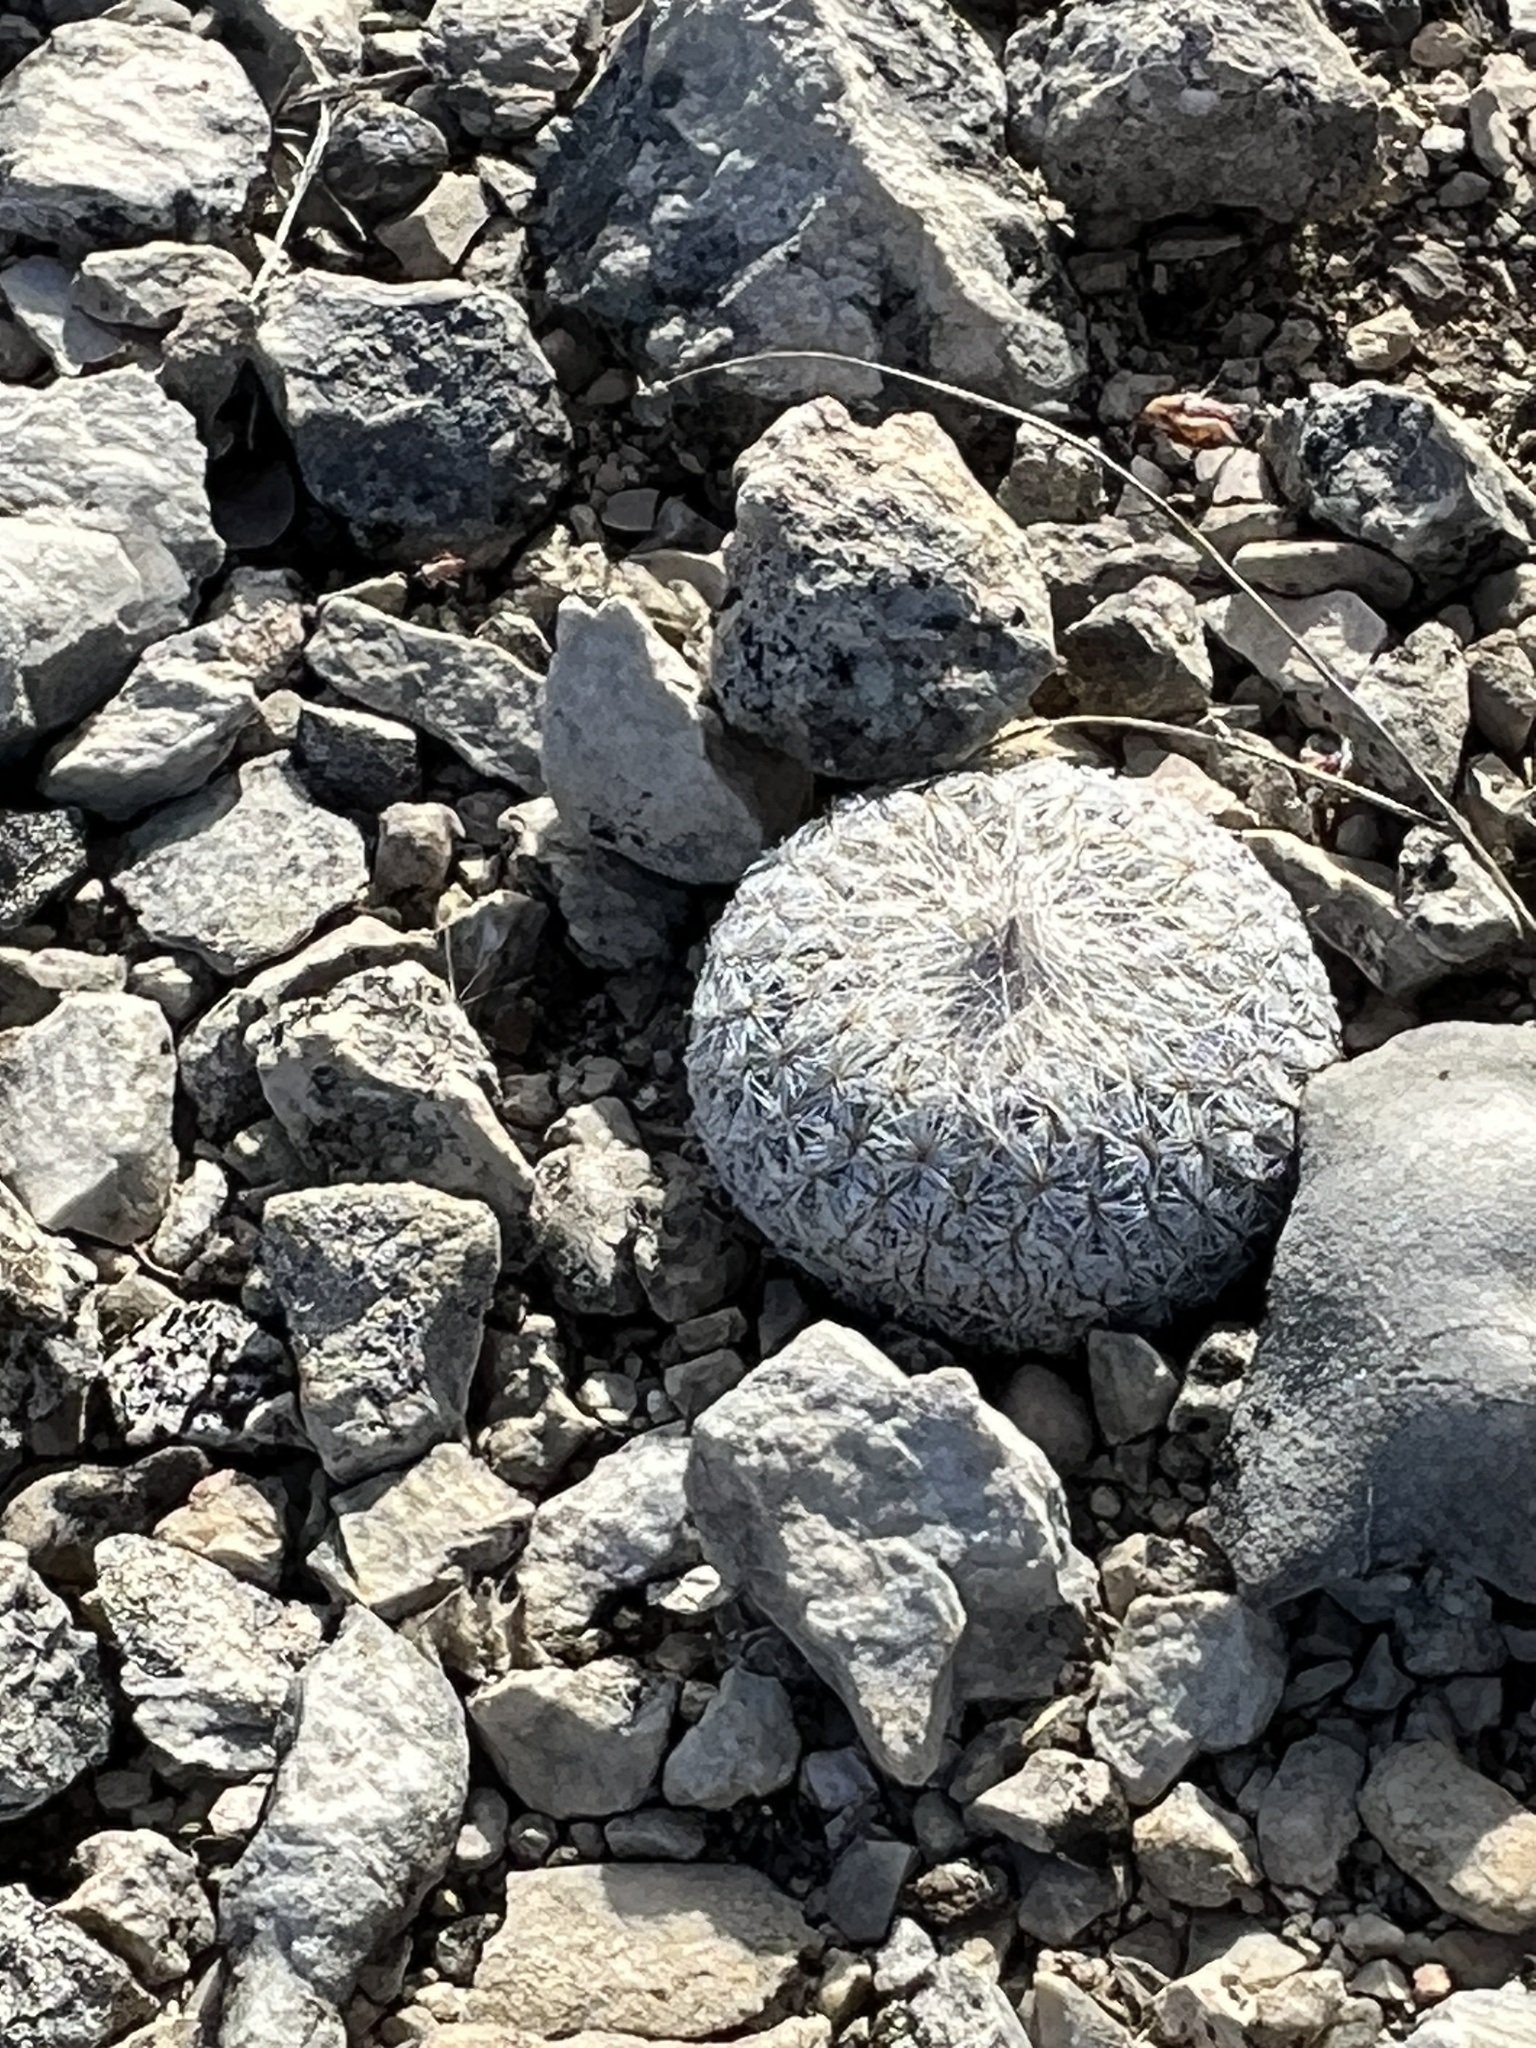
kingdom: Plantae
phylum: Tracheophyta
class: Magnoliopsida
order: Caryophyllales
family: Cactaceae
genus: Epithelantha
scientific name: Epithelantha micromeris
